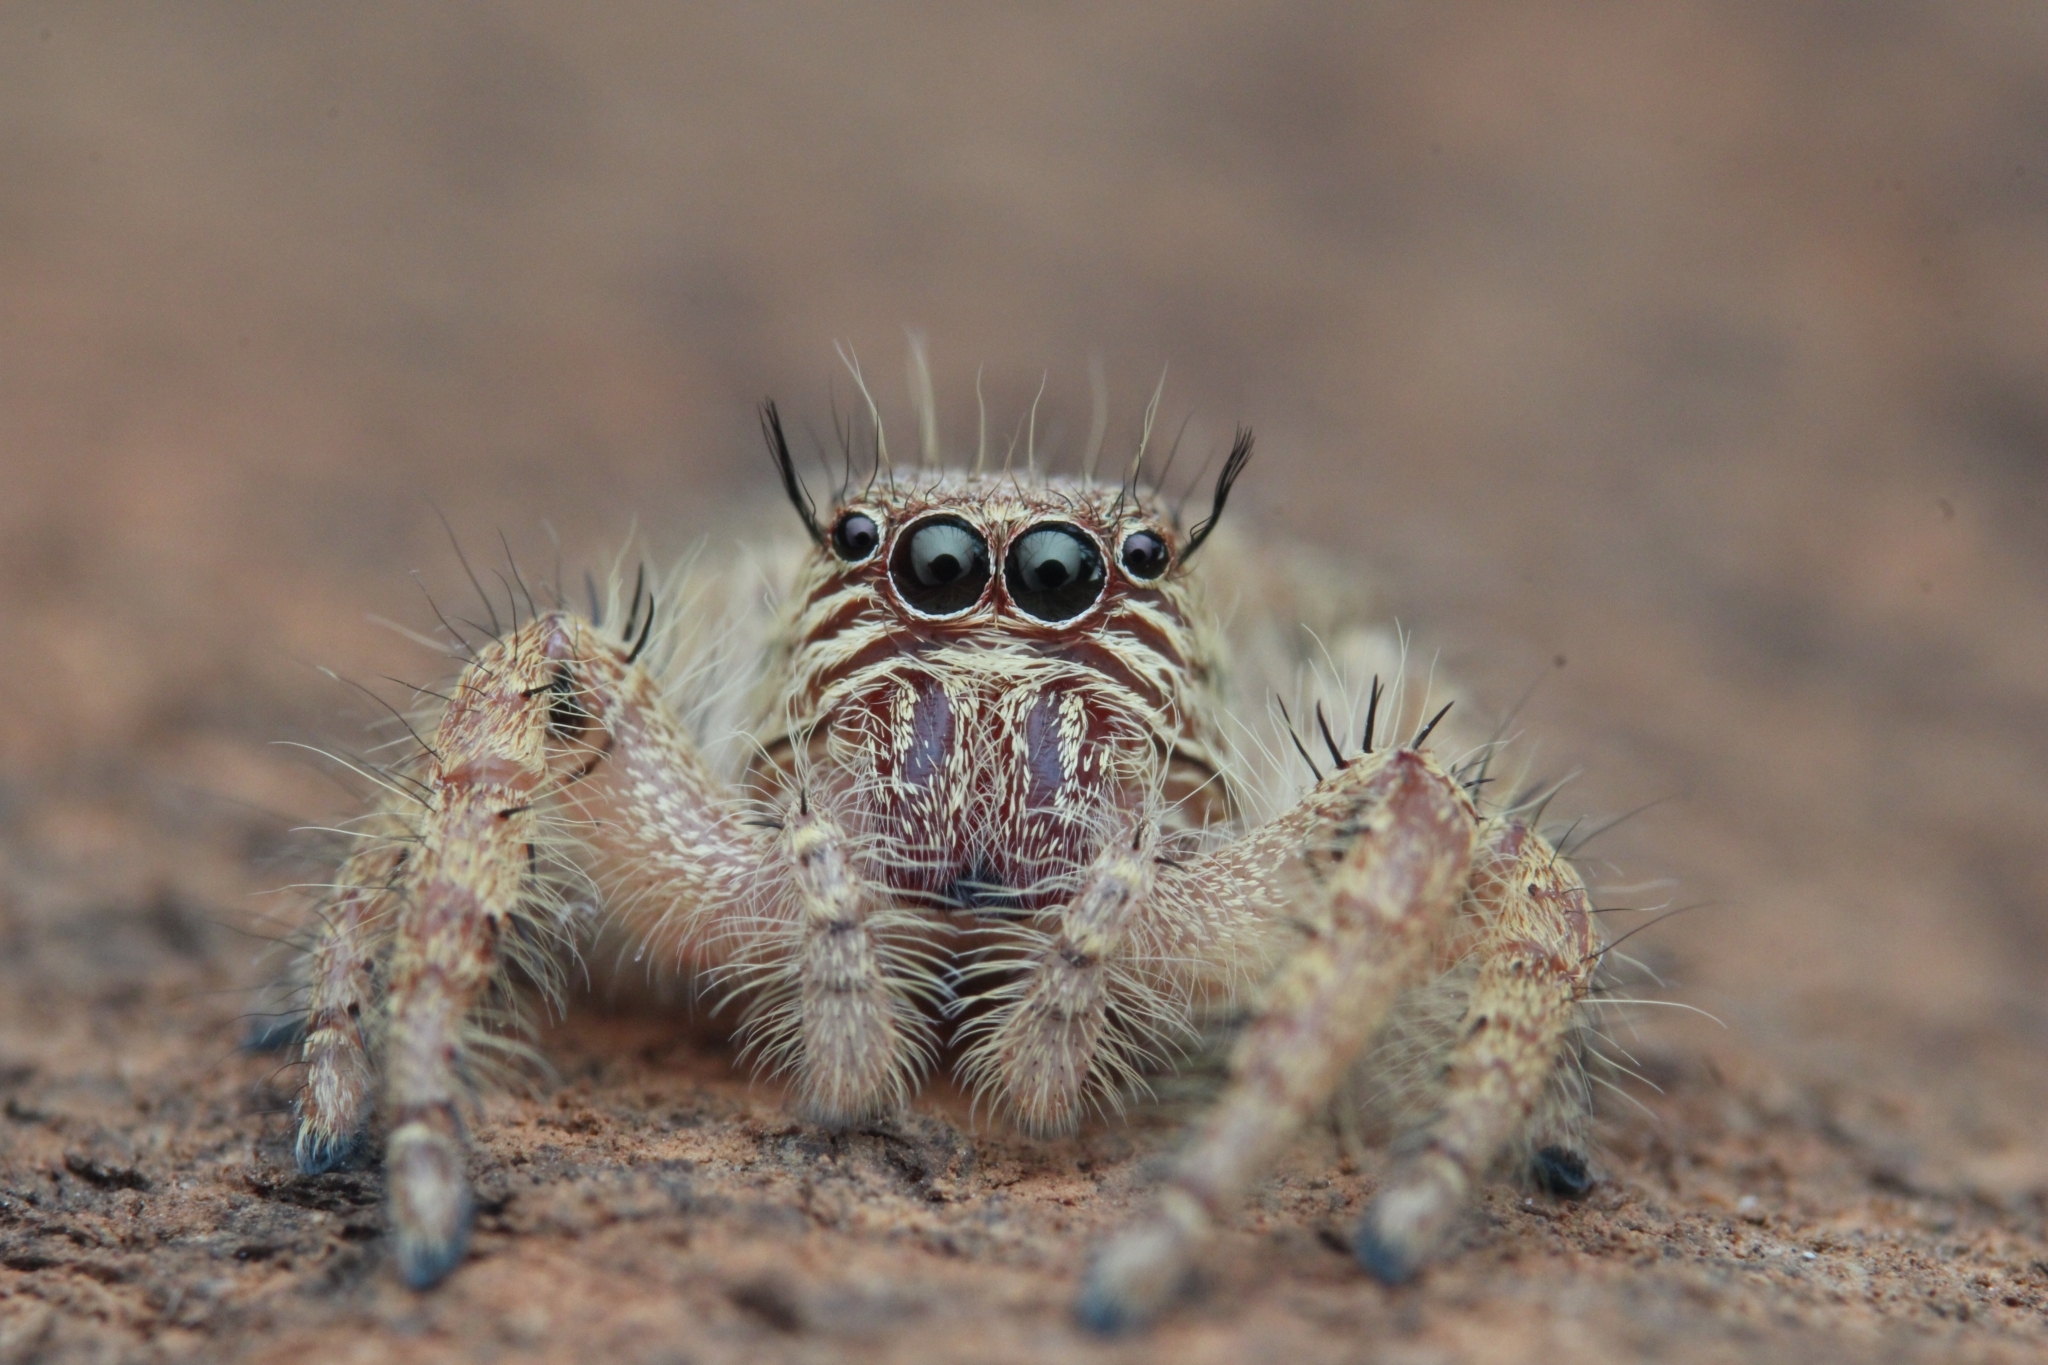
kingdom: Animalia
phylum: Arthropoda
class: Arachnida
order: Araneae
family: Salticidae
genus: Hyllus
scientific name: Hyllus treleaveni
